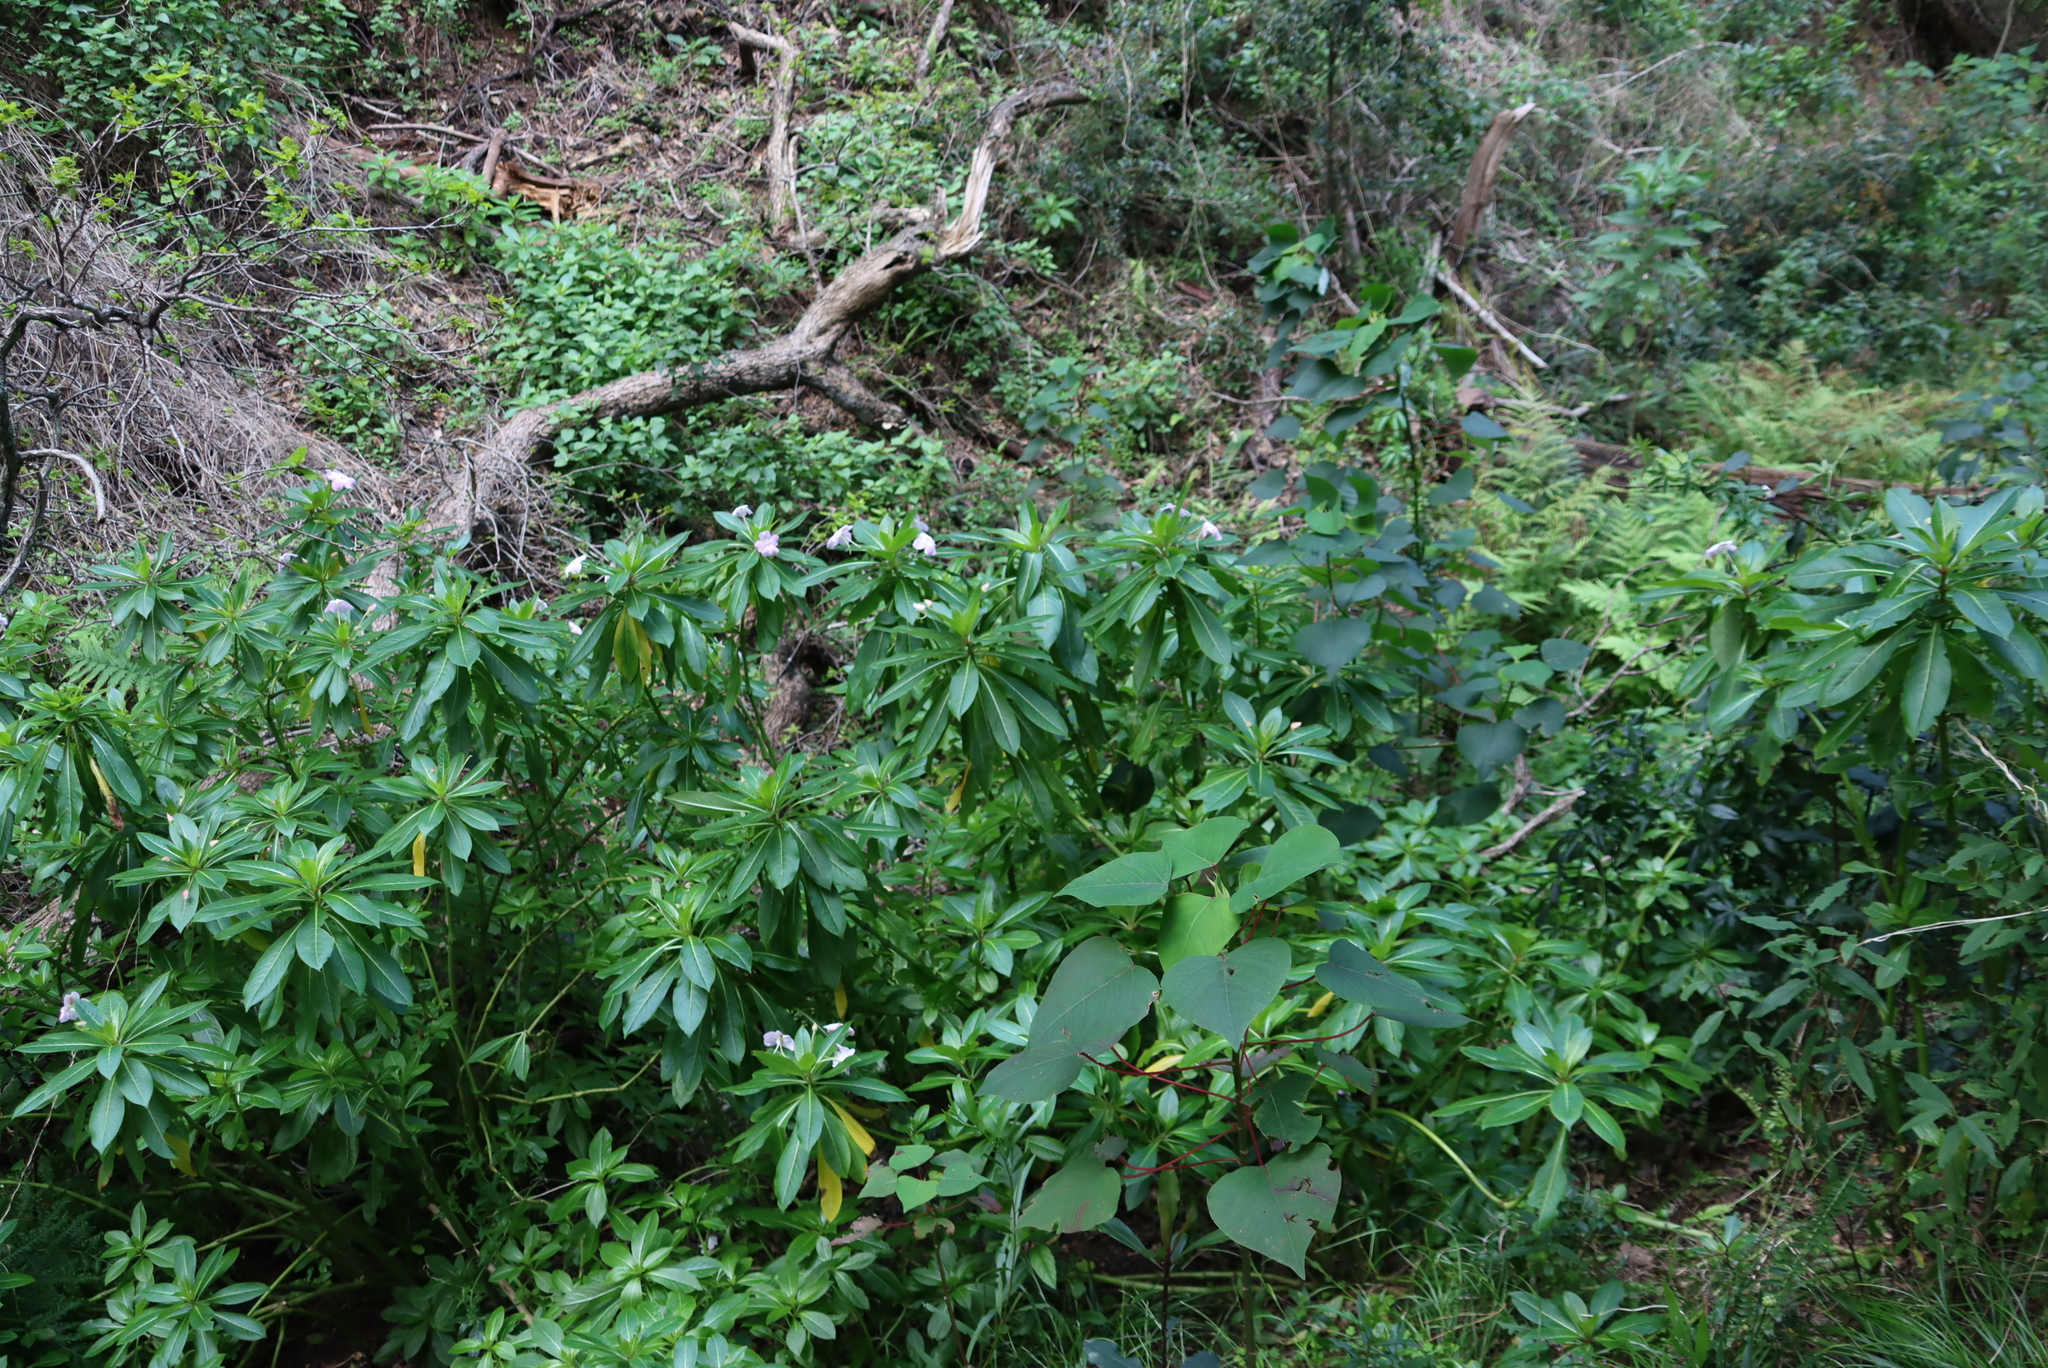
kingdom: Plantae
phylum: Tracheophyta
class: Magnoliopsida
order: Ericales
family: Balsaminaceae
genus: Impatiens
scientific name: Impatiens sodenii
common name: Oliver's touch-me-not
